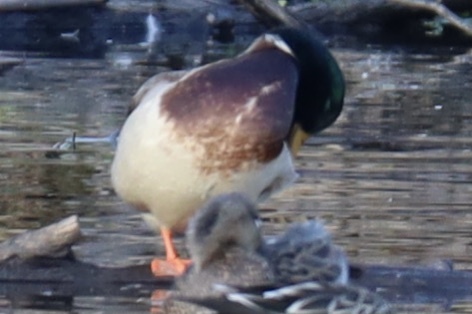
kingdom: Animalia
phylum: Chordata
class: Aves
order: Anseriformes
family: Anatidae
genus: Anas
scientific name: Anas platyrhynchos
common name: Mallard
